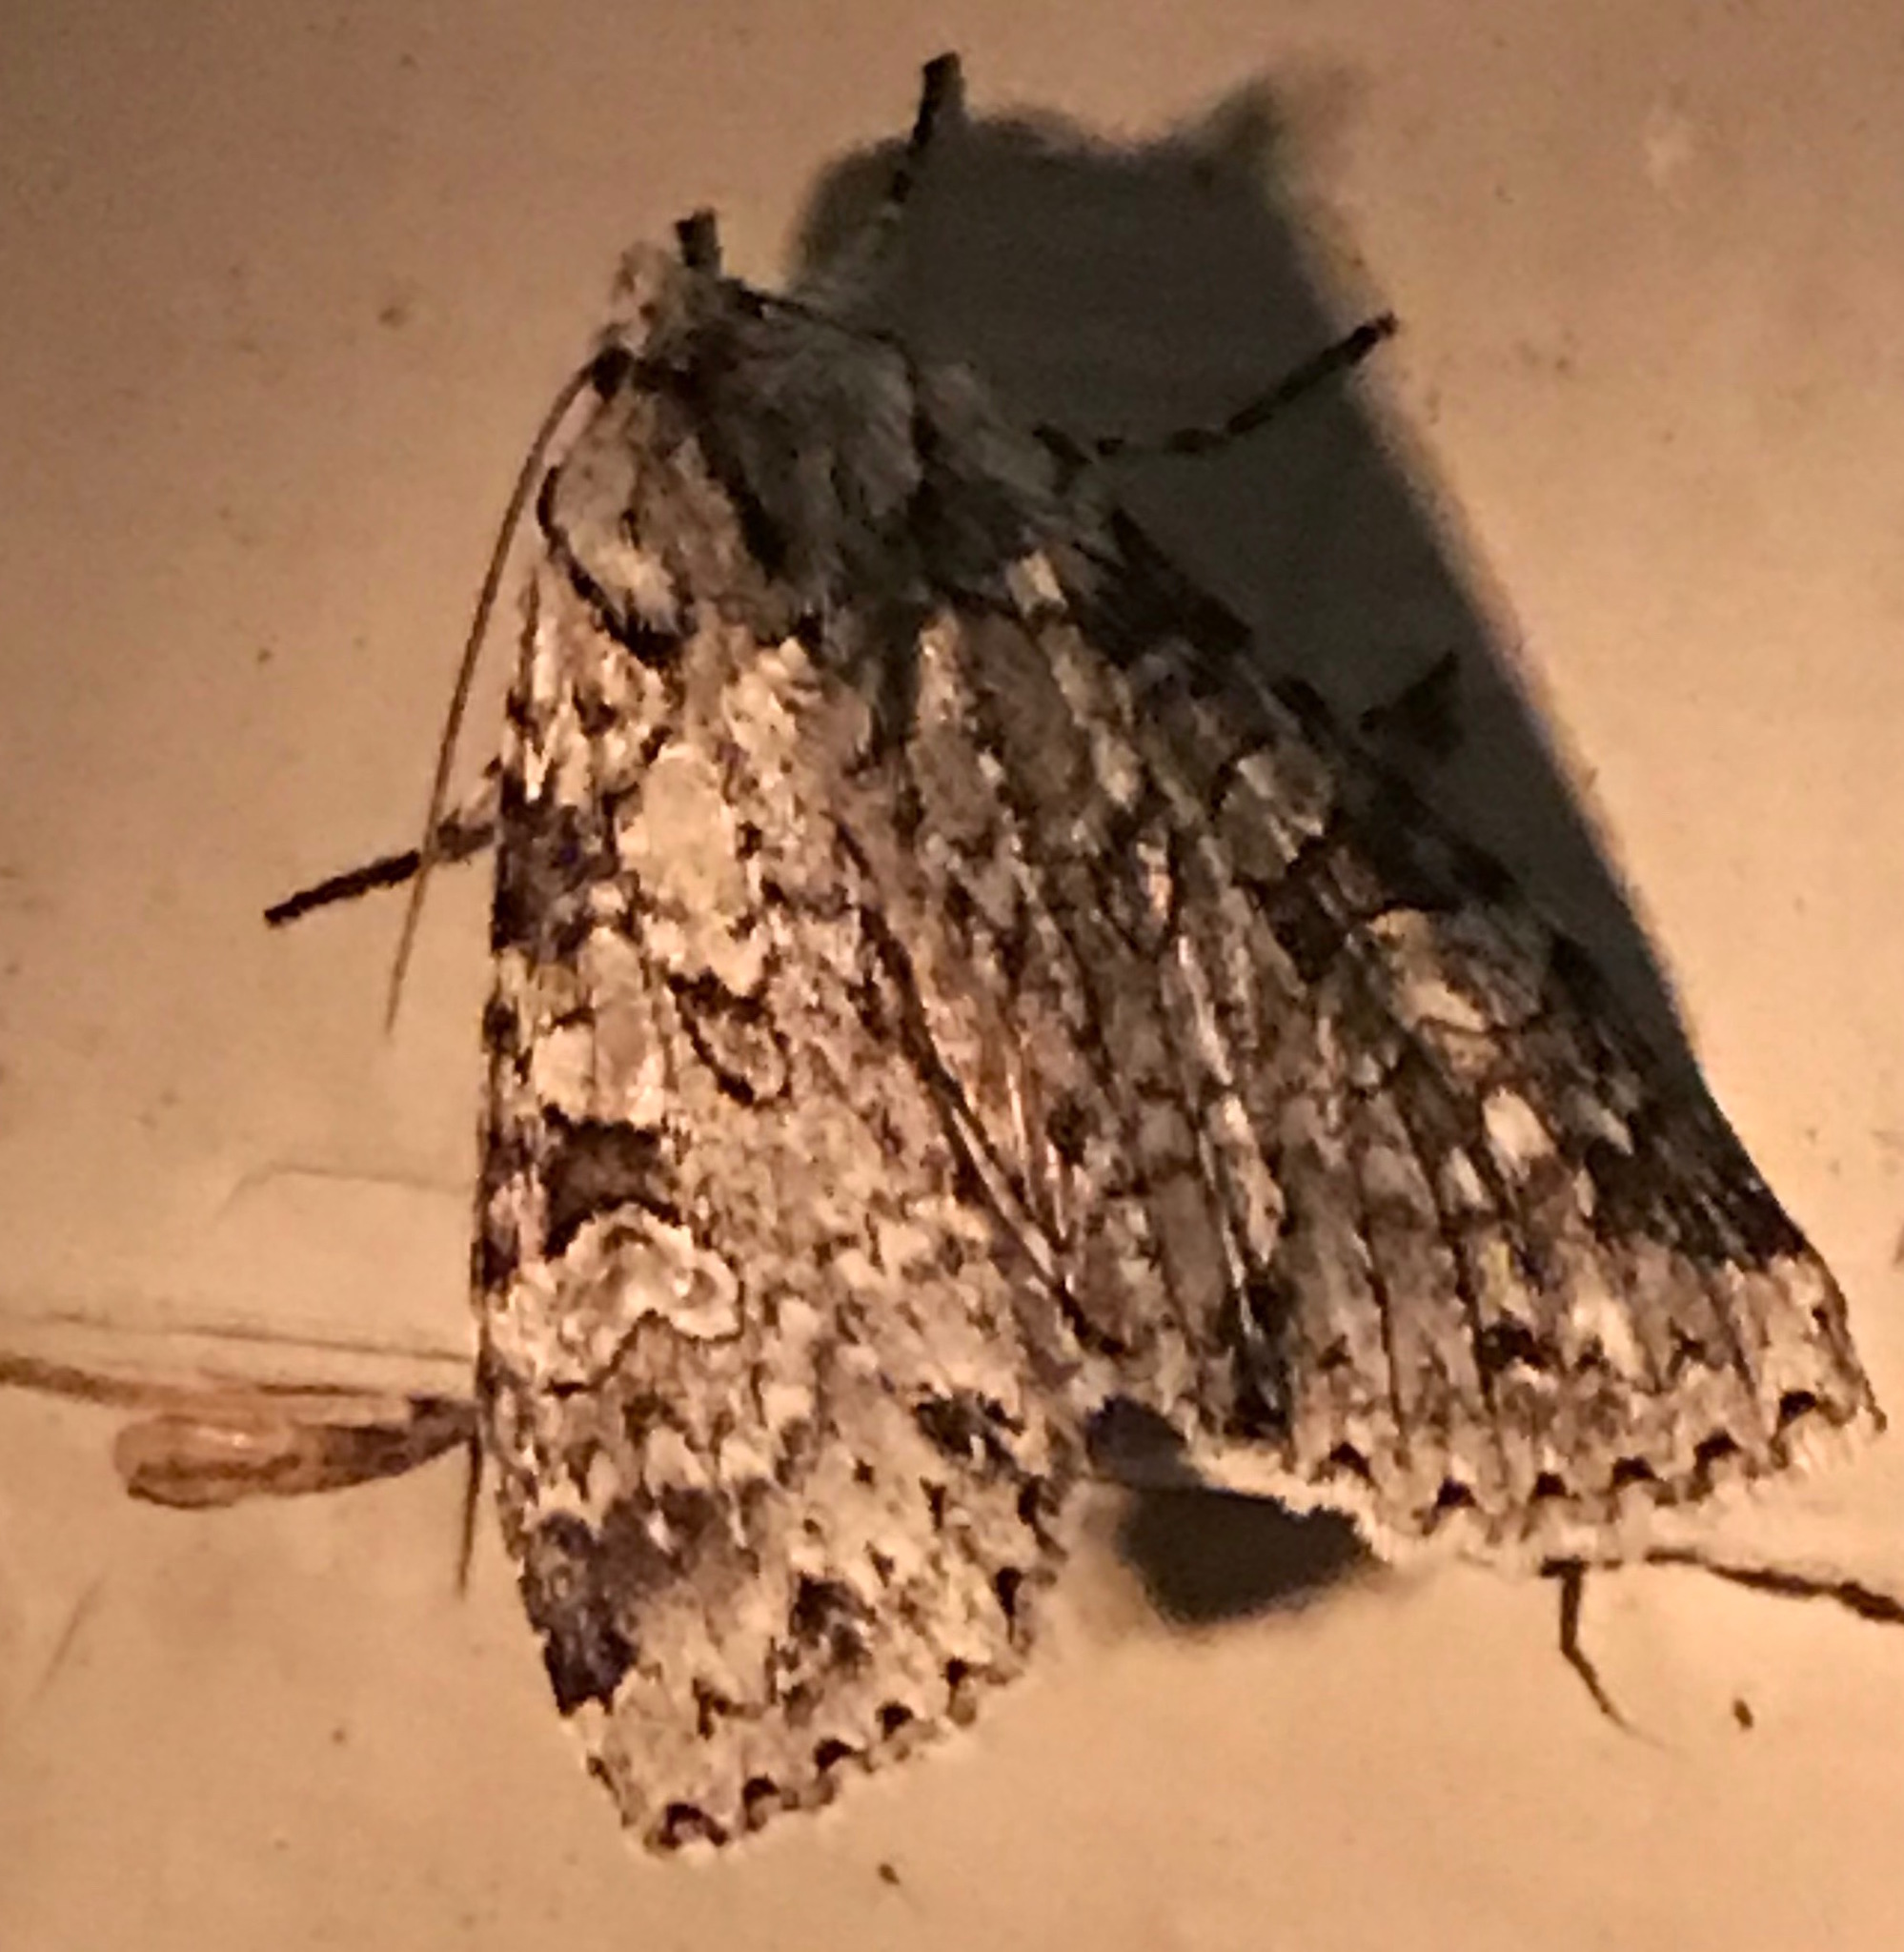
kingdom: Animalia
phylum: Arthropoda
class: Insecta
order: Lepidoptera
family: Noctuidae
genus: Polia
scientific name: Polia nimbosa
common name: Stormy arches
